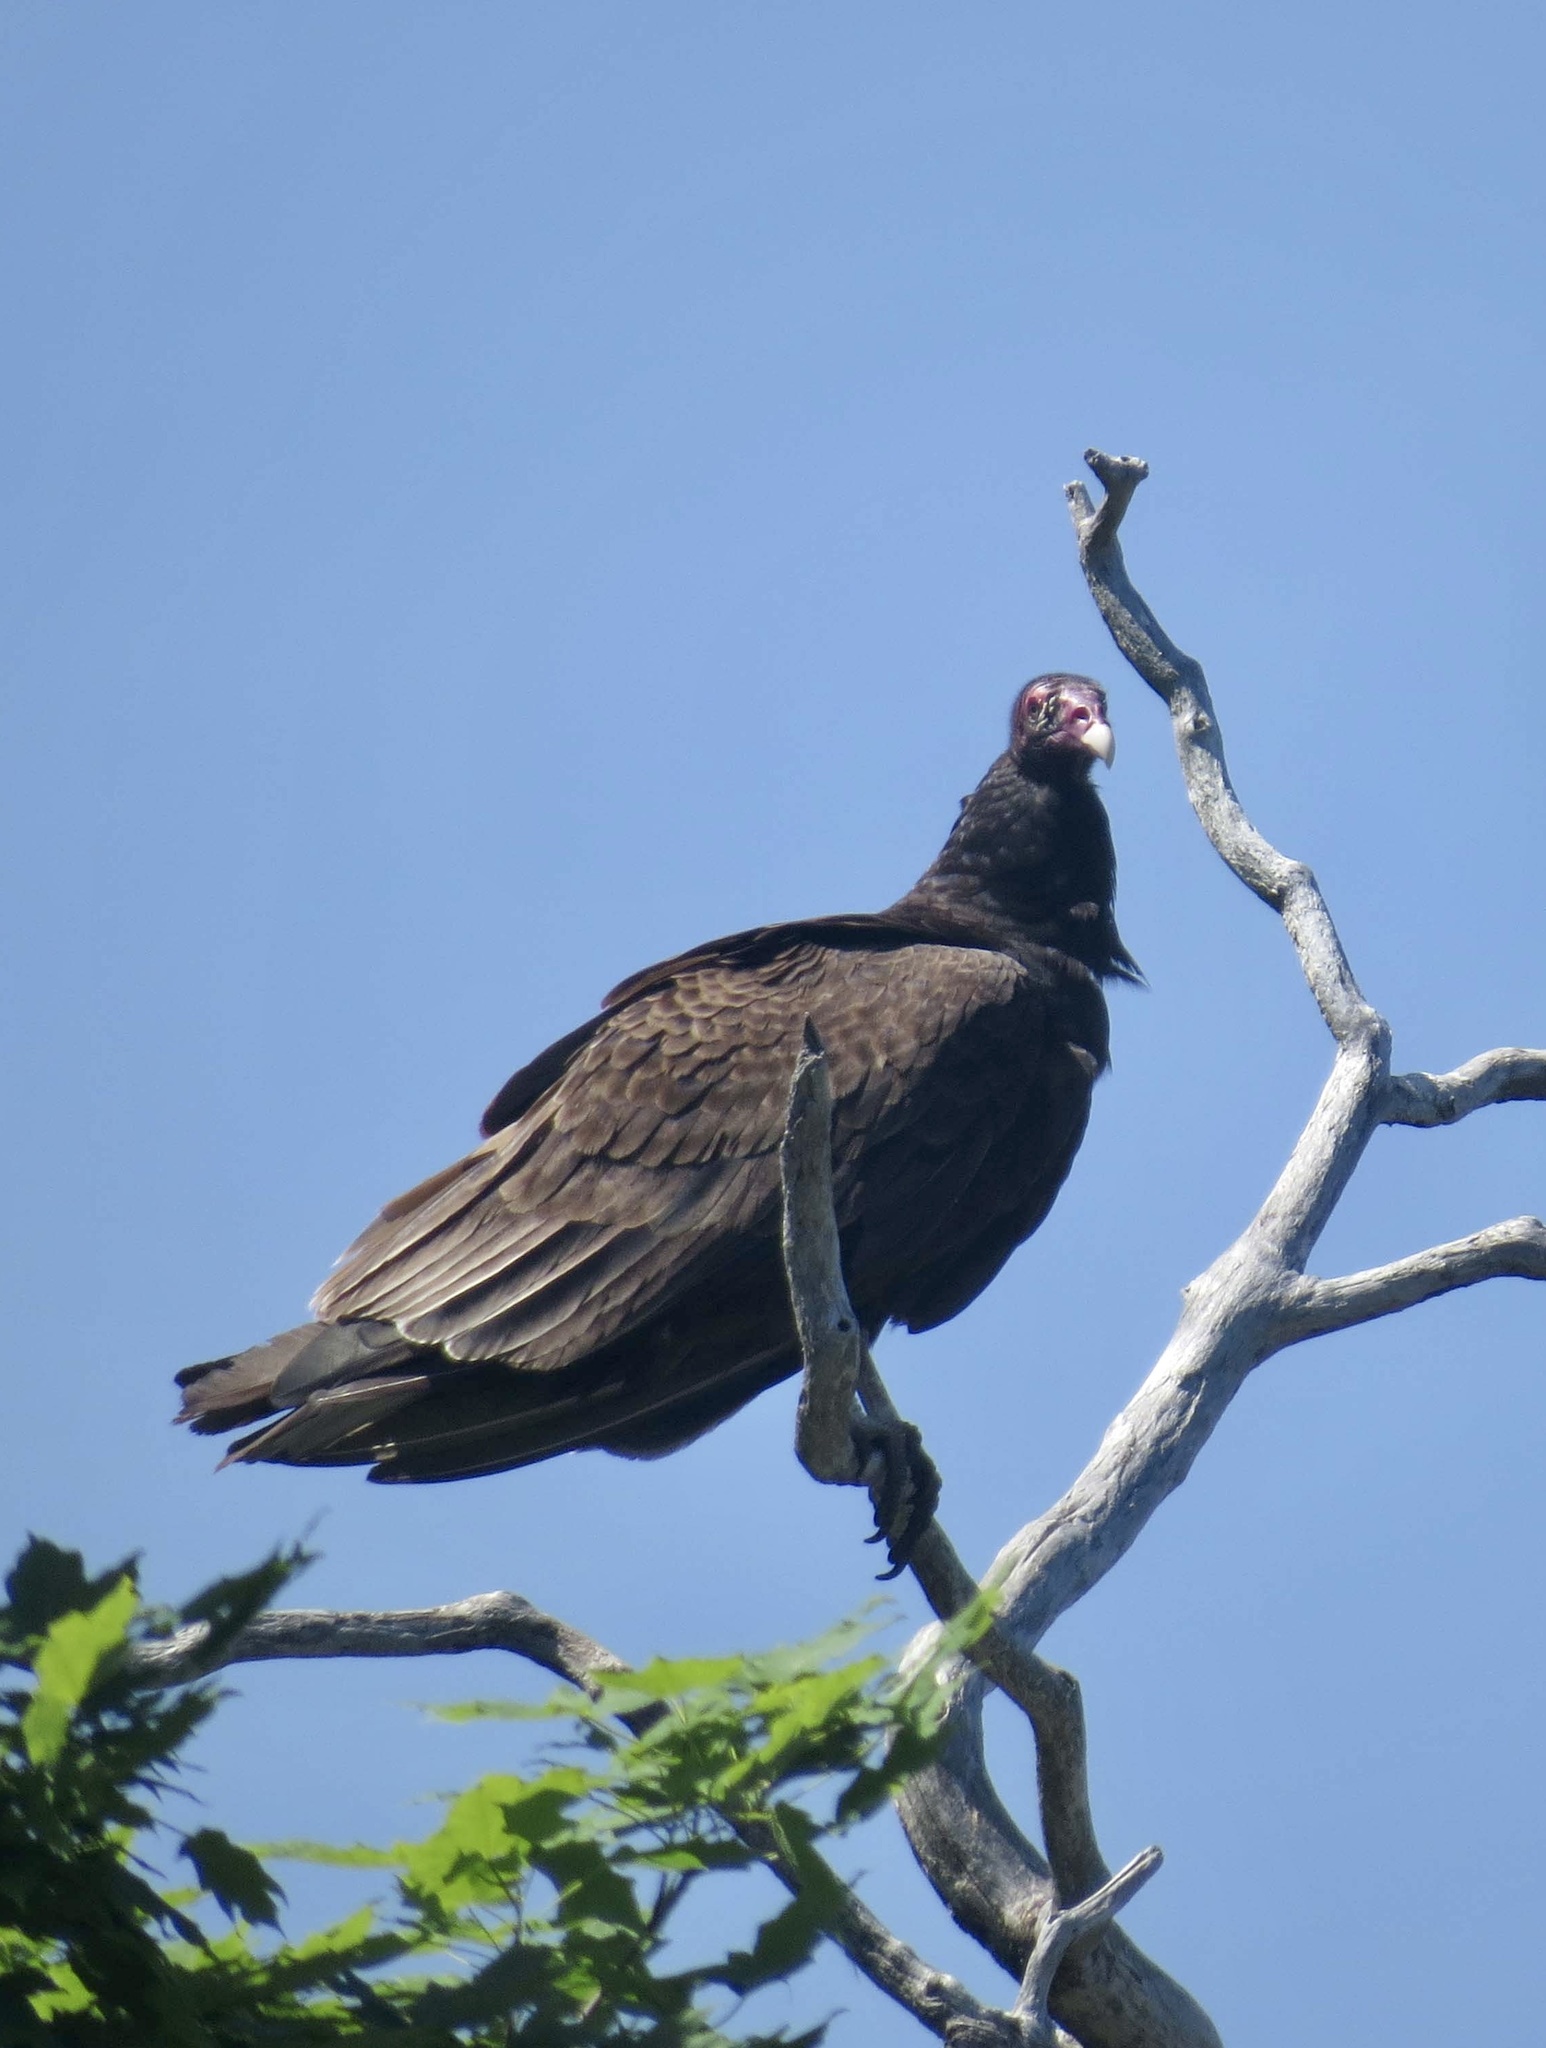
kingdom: Animalia
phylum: Chordata
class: Aves
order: Accipitriformes
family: Cathartidae
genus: Cathartes
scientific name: Cathartes aura
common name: Turkey vulture
